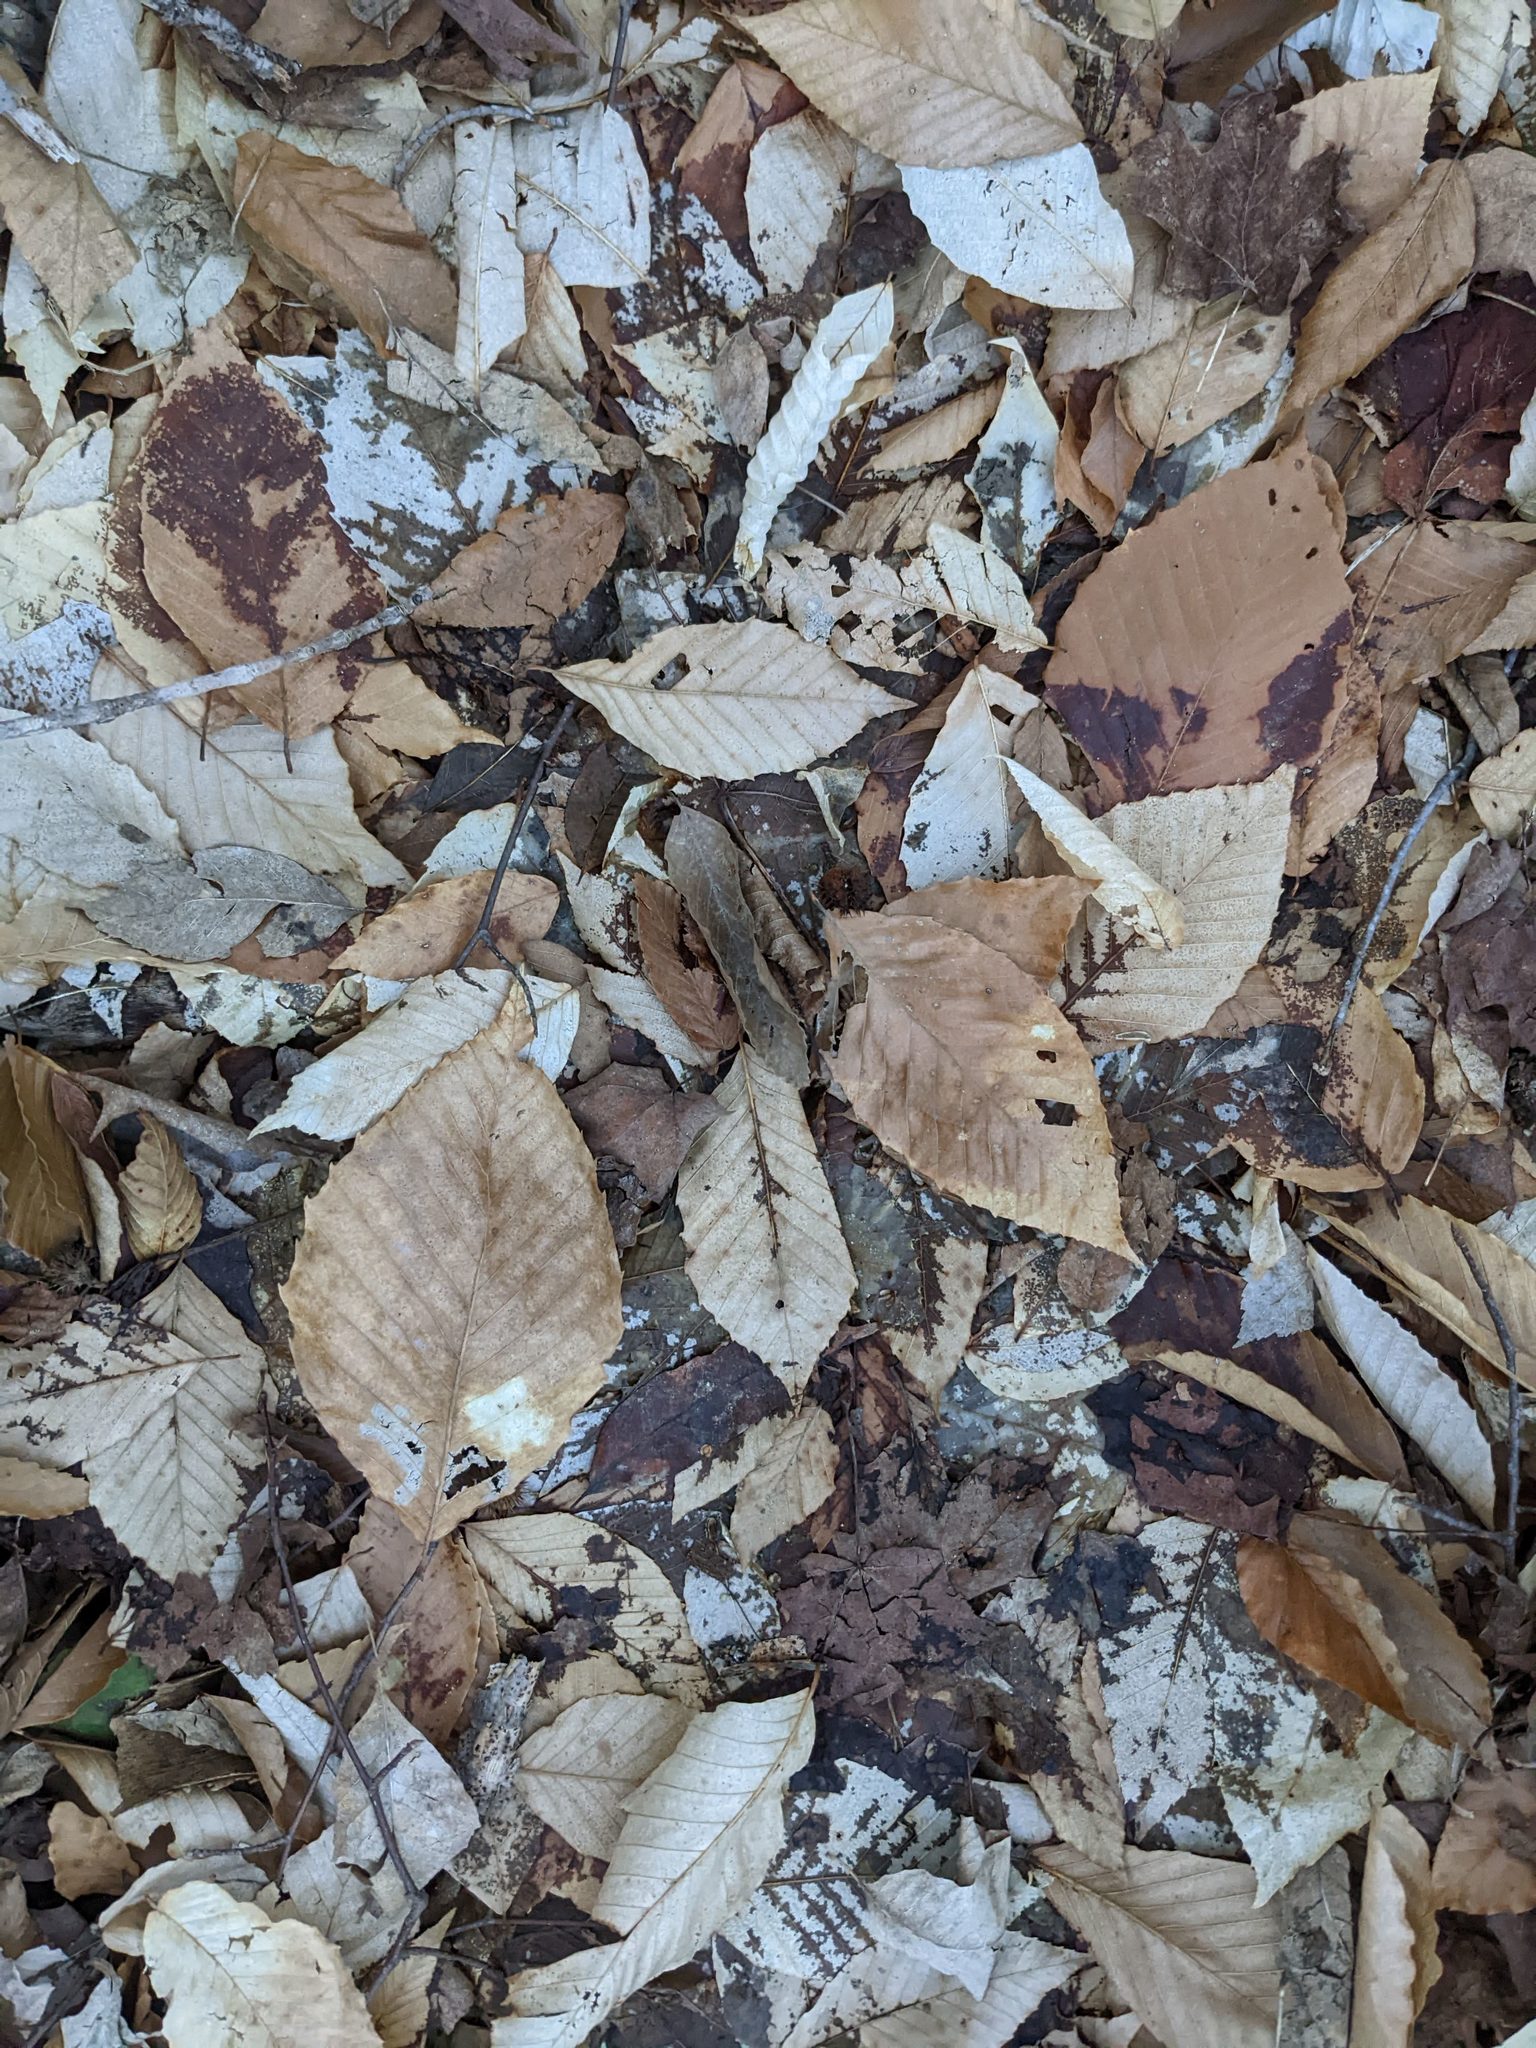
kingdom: Plantae
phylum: Tracheophyta
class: Magnoliopsida
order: Fagales
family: Fagaceae
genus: Fagus
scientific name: Fagus grandifolia
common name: American beech
